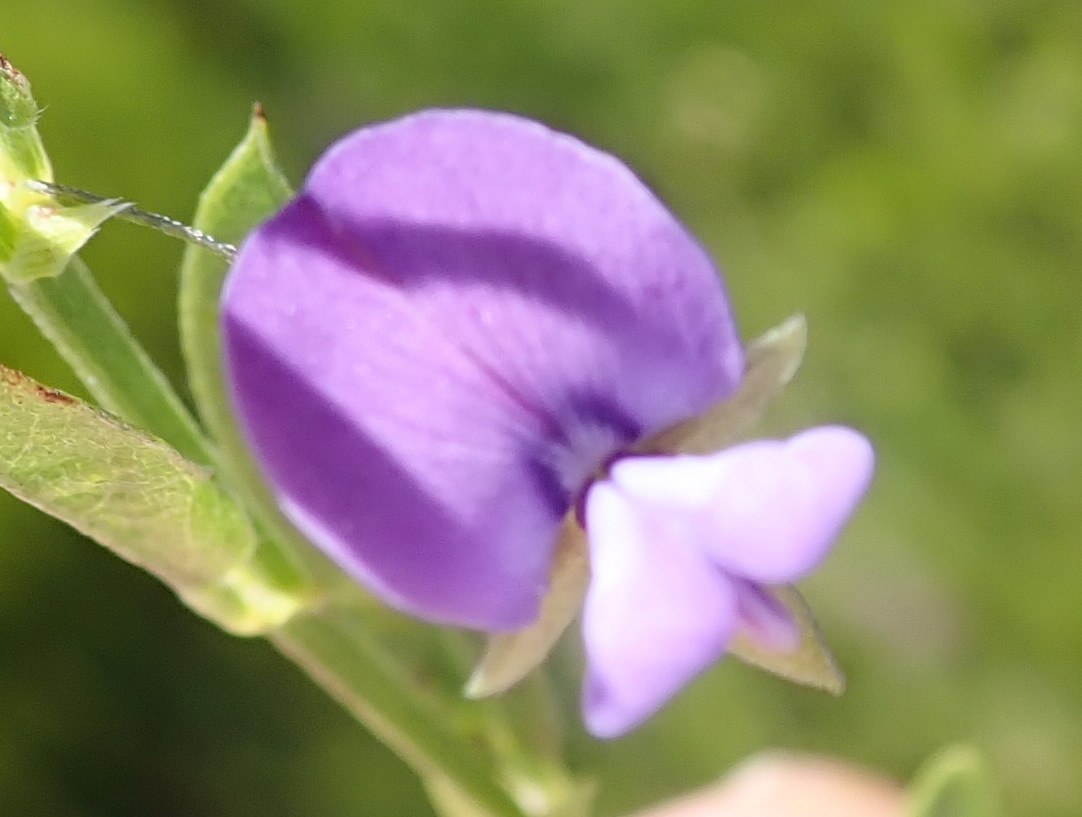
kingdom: Plantae
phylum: Tracheophyta
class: Magnoliopsida
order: Fabales
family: Fabaceae
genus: Psoralea
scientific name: Psoralea plauta
